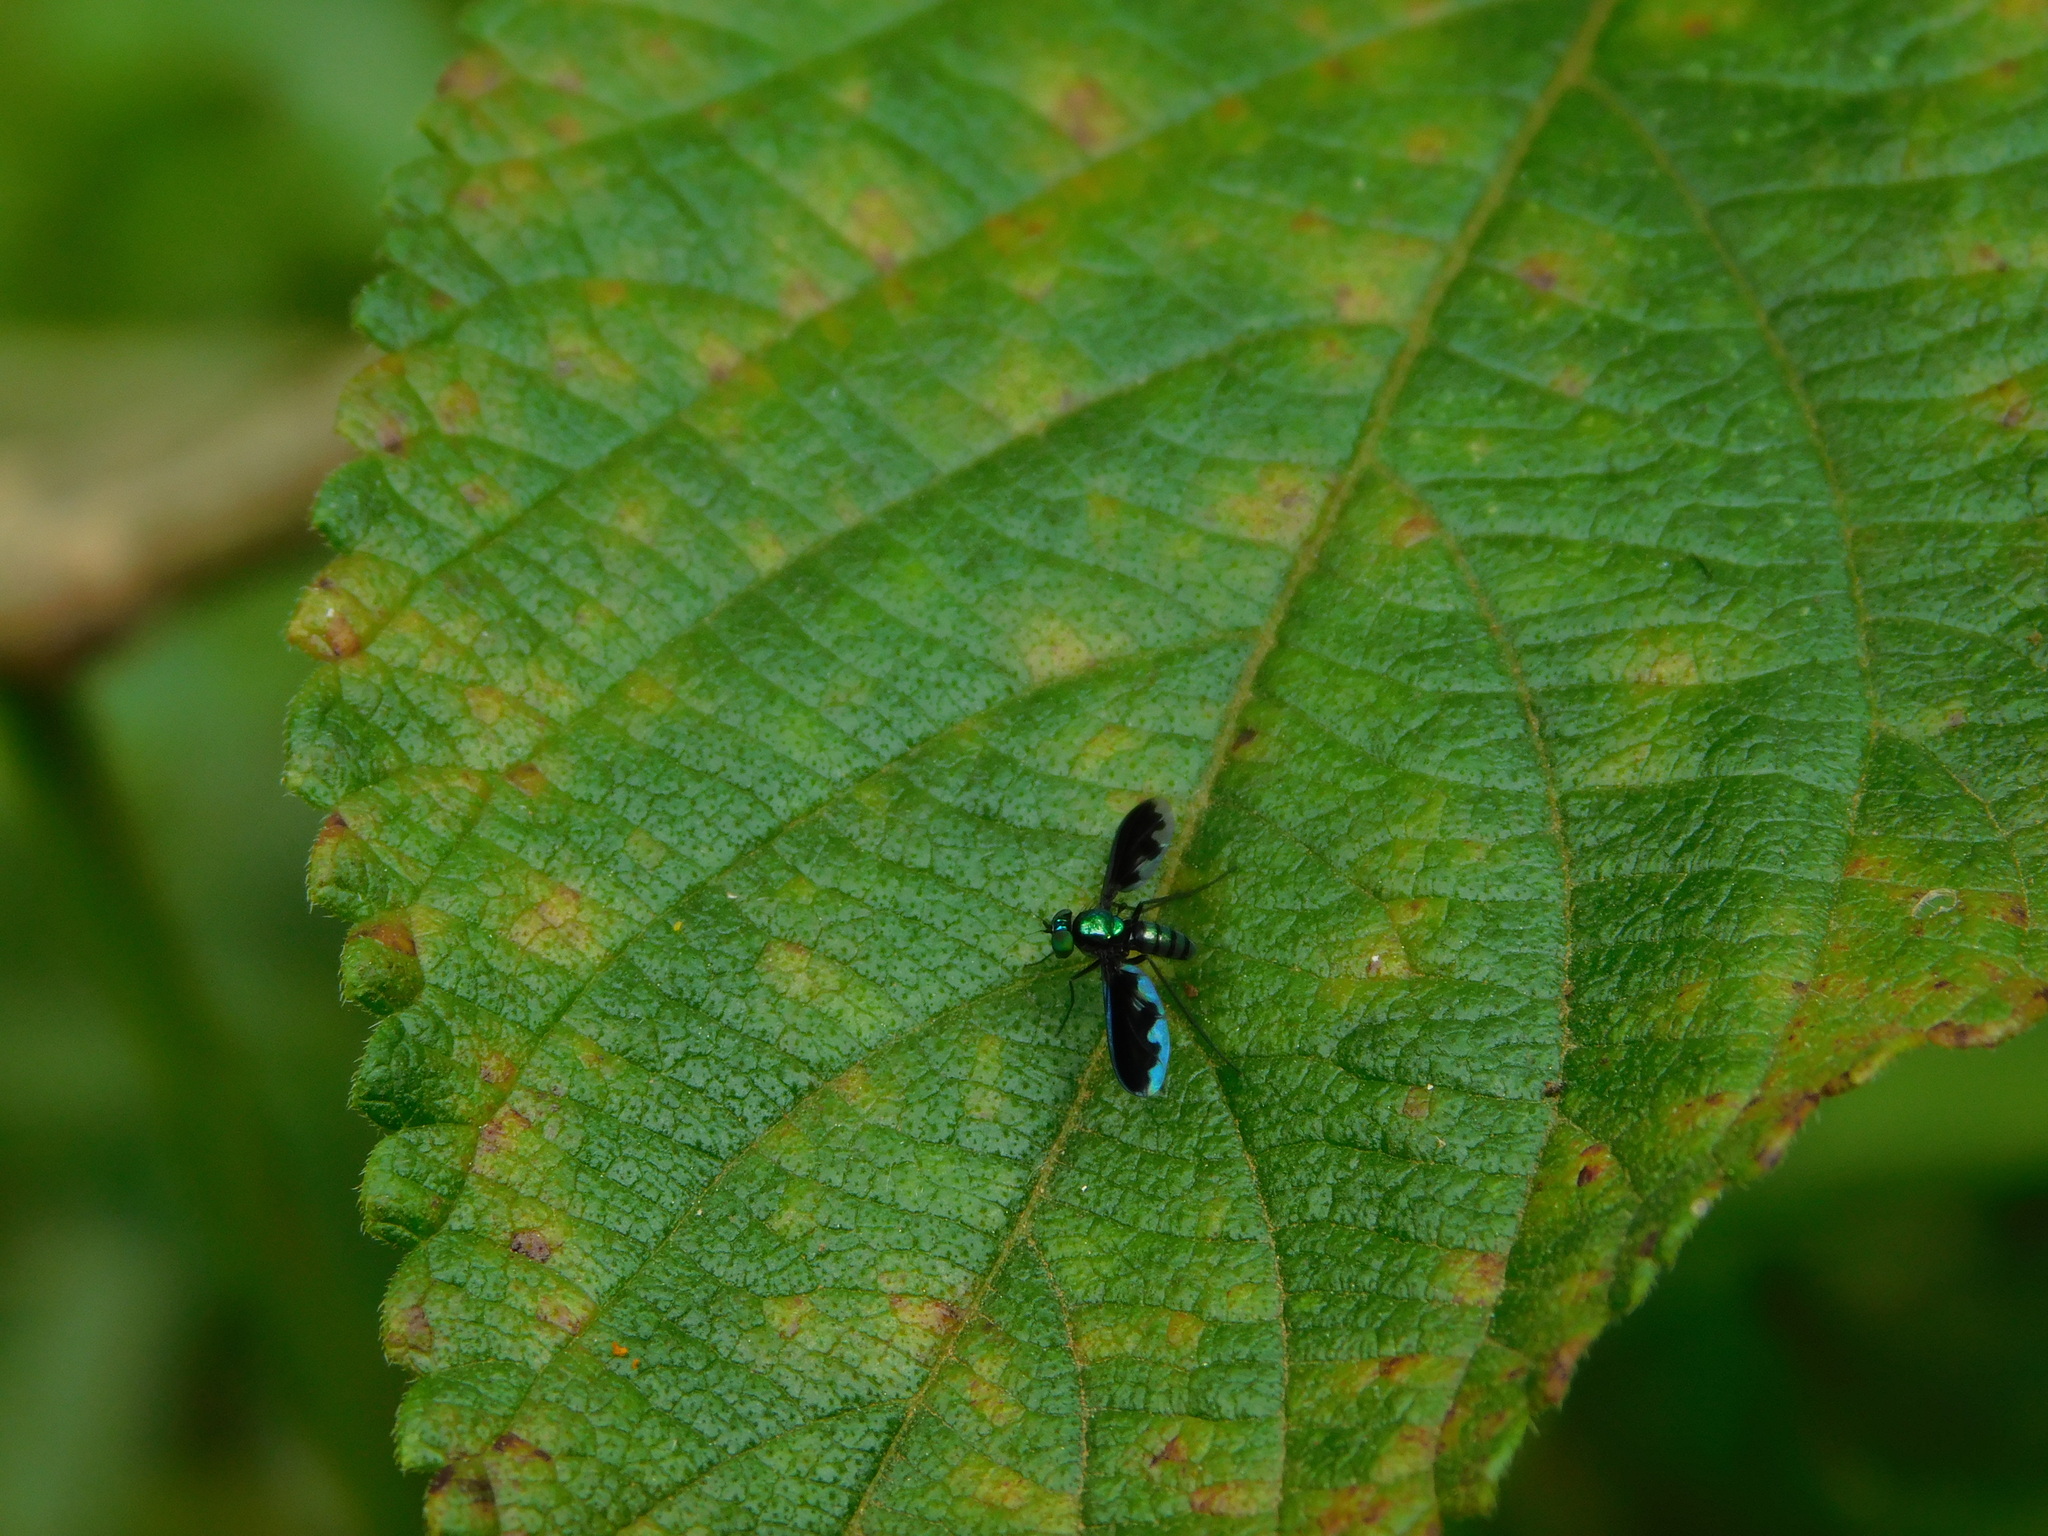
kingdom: Animalia
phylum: Arthropoda
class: Insecta
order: Diptera
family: Dolichopodidae
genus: Krakatauia
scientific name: Krakatauia anthracoides
